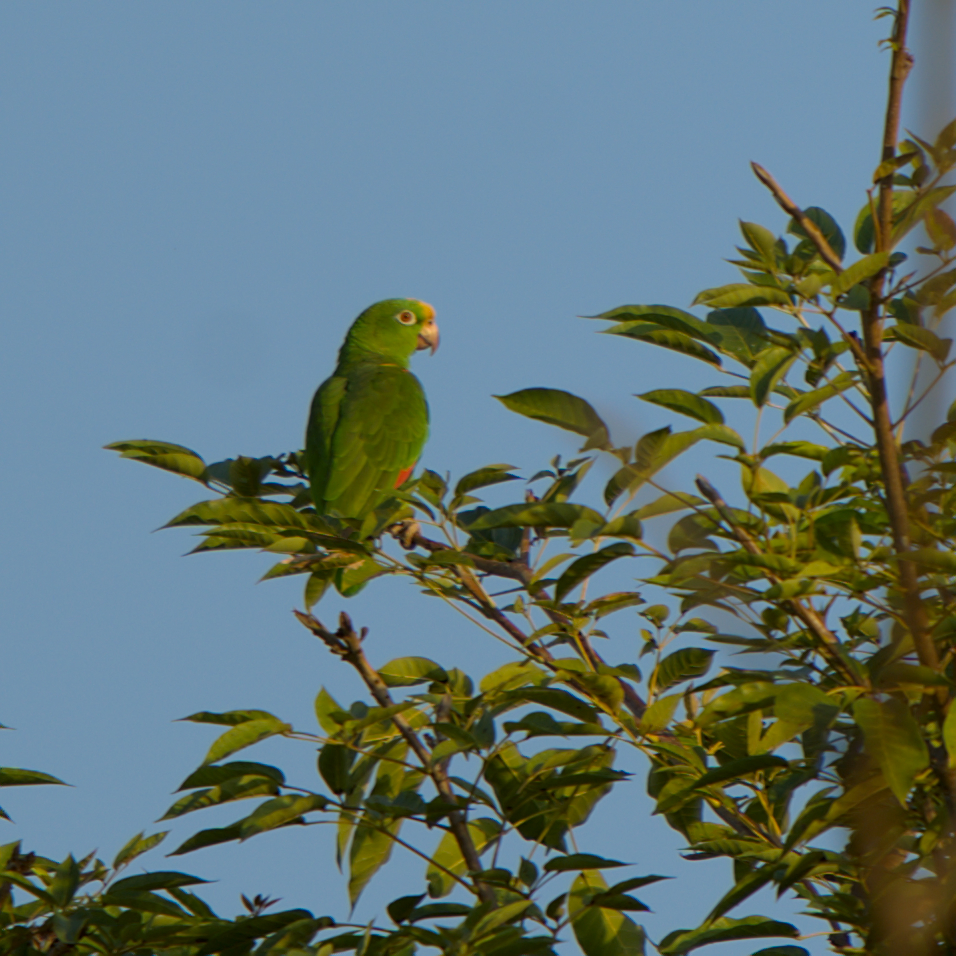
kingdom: Animalia
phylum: Chordata
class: Aves
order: Psittaciformes
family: Psittacidae
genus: Amazona
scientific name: Amazona ochrocephala
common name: Yellow-crowned amazon
